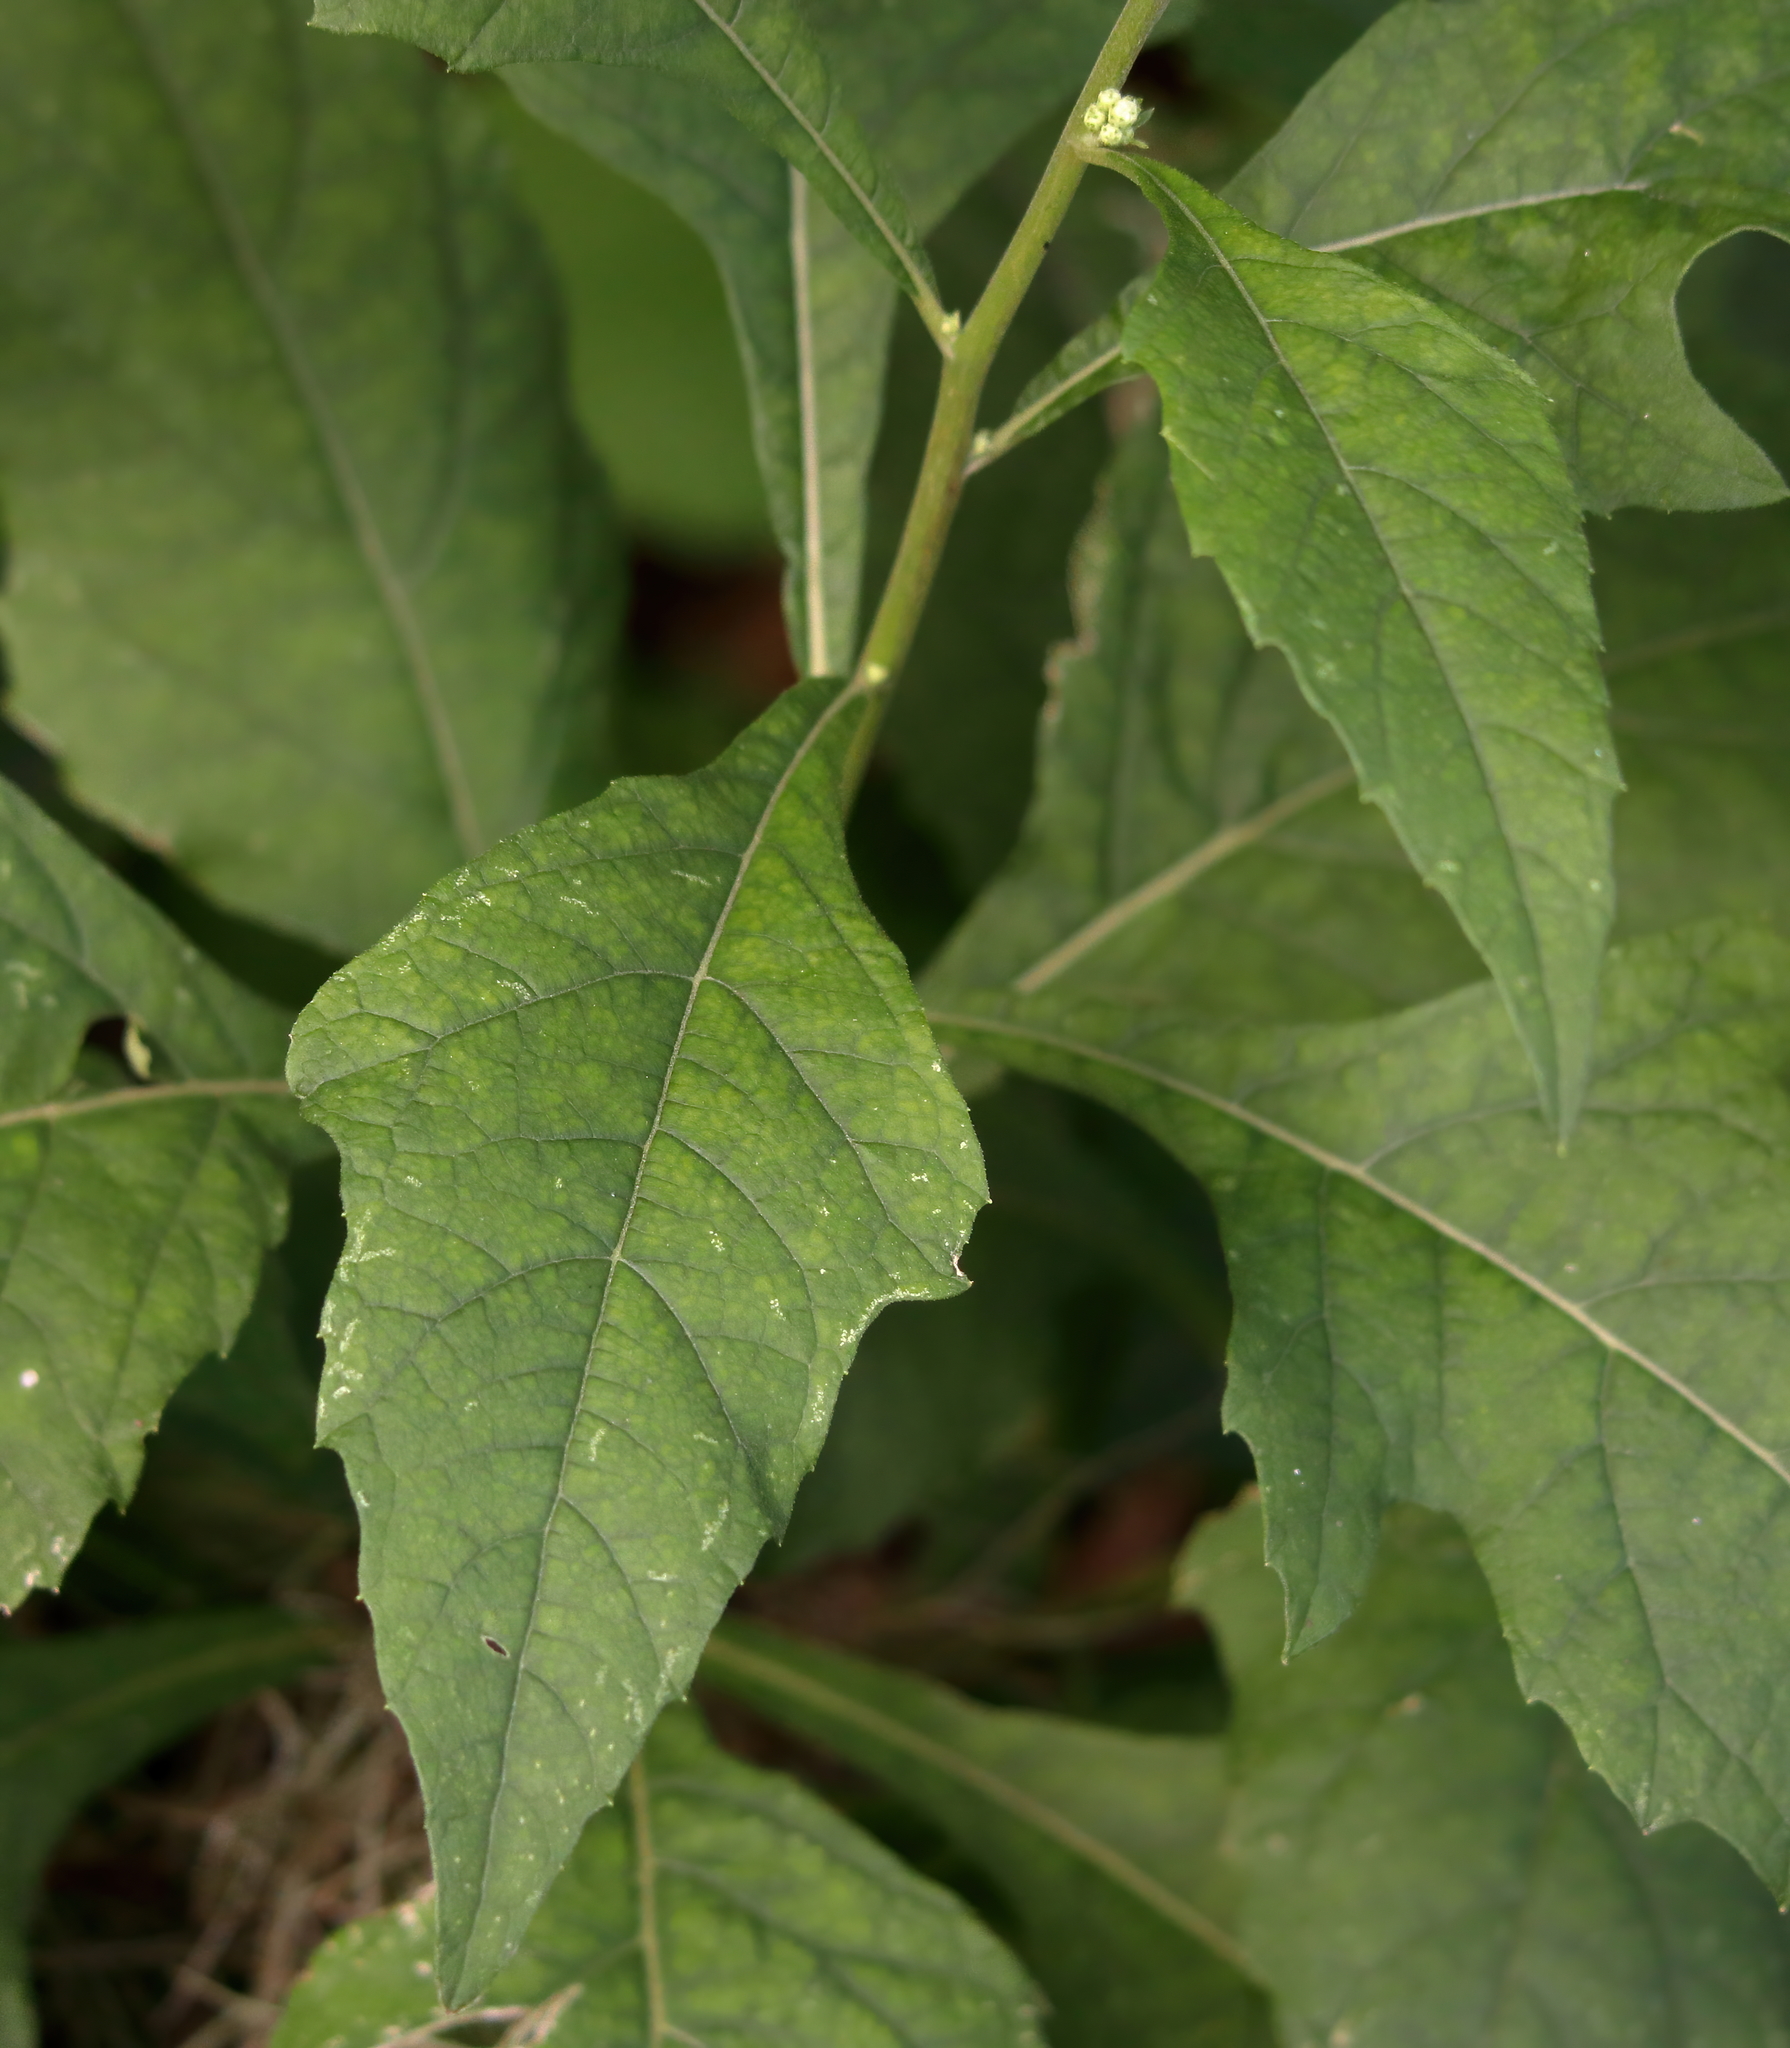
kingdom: Plantae
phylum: Tracheophyta
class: Magnoliopsida
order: Asterales
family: Asteraceae
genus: Verbesina
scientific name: Verbesina virginica
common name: Frostweed
